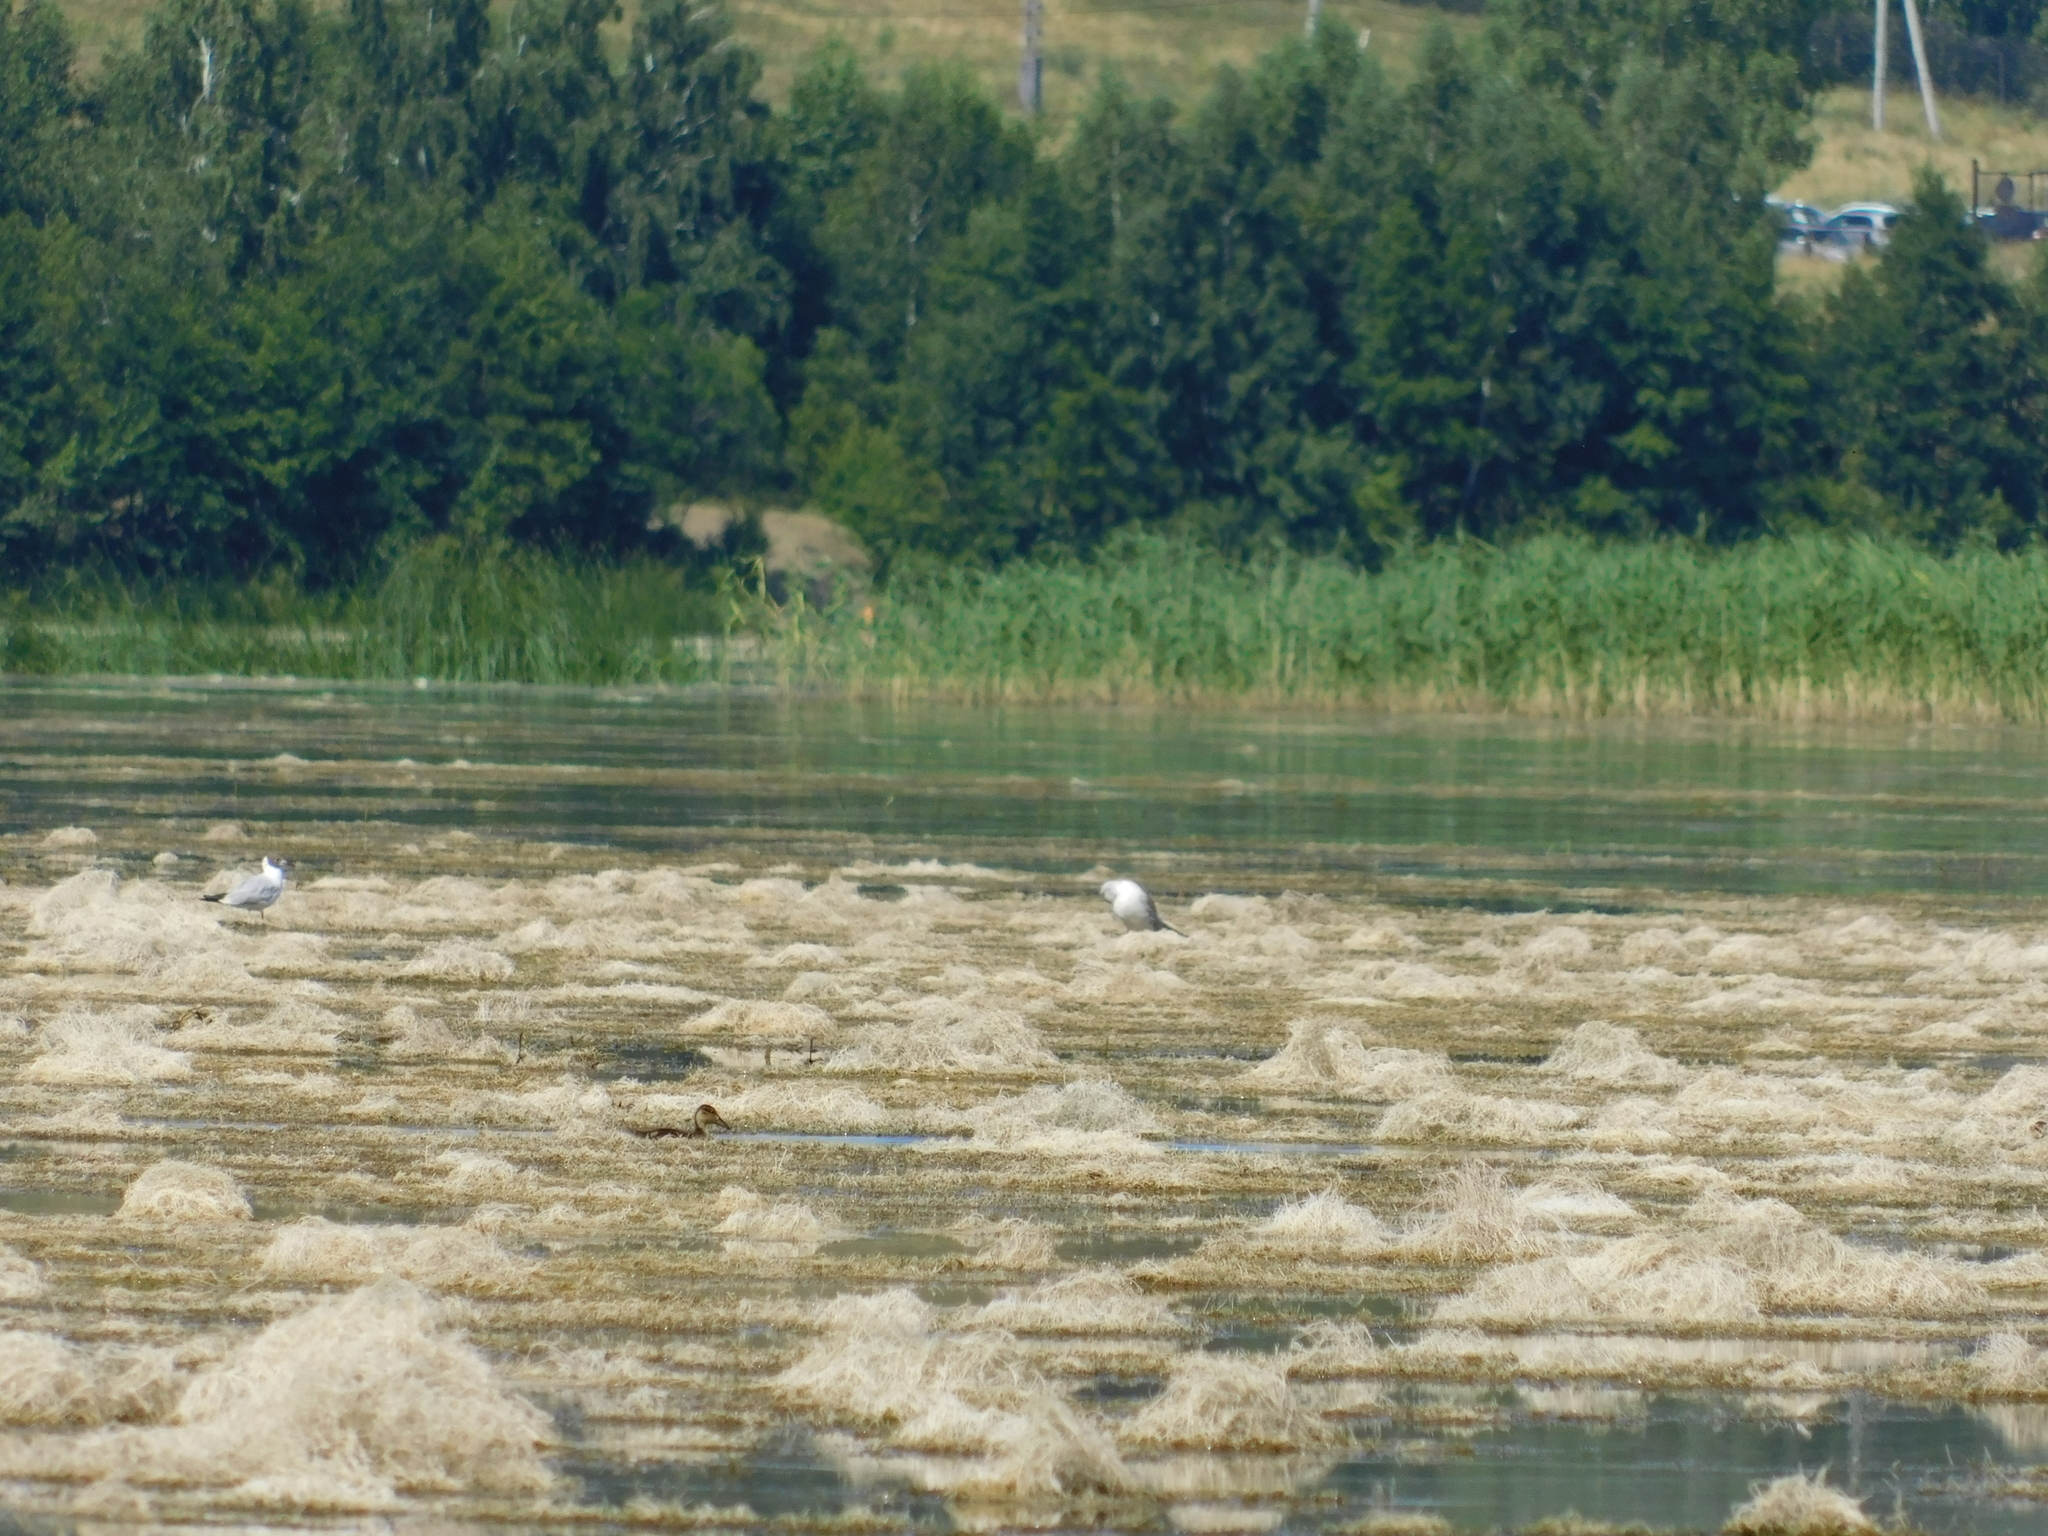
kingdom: Animalia
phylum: Chordata
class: Aves
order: Charadriiformes
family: Laridae
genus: Chroicocephalus
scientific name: Chroicocephalus ridibundus
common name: Black-headed gull
